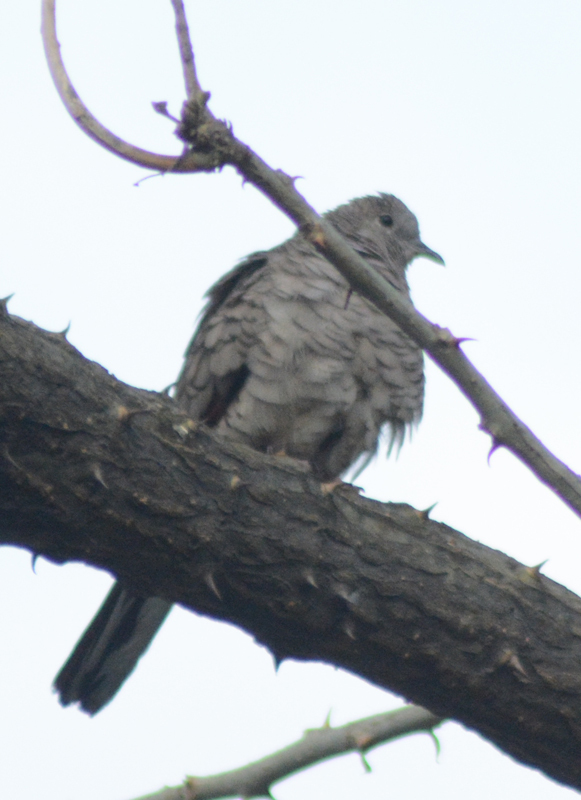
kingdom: Animalia
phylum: Chordata
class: Aves
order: Columbiformes
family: Columbidae
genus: Columbina
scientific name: Columbina inca
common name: Inca dove
